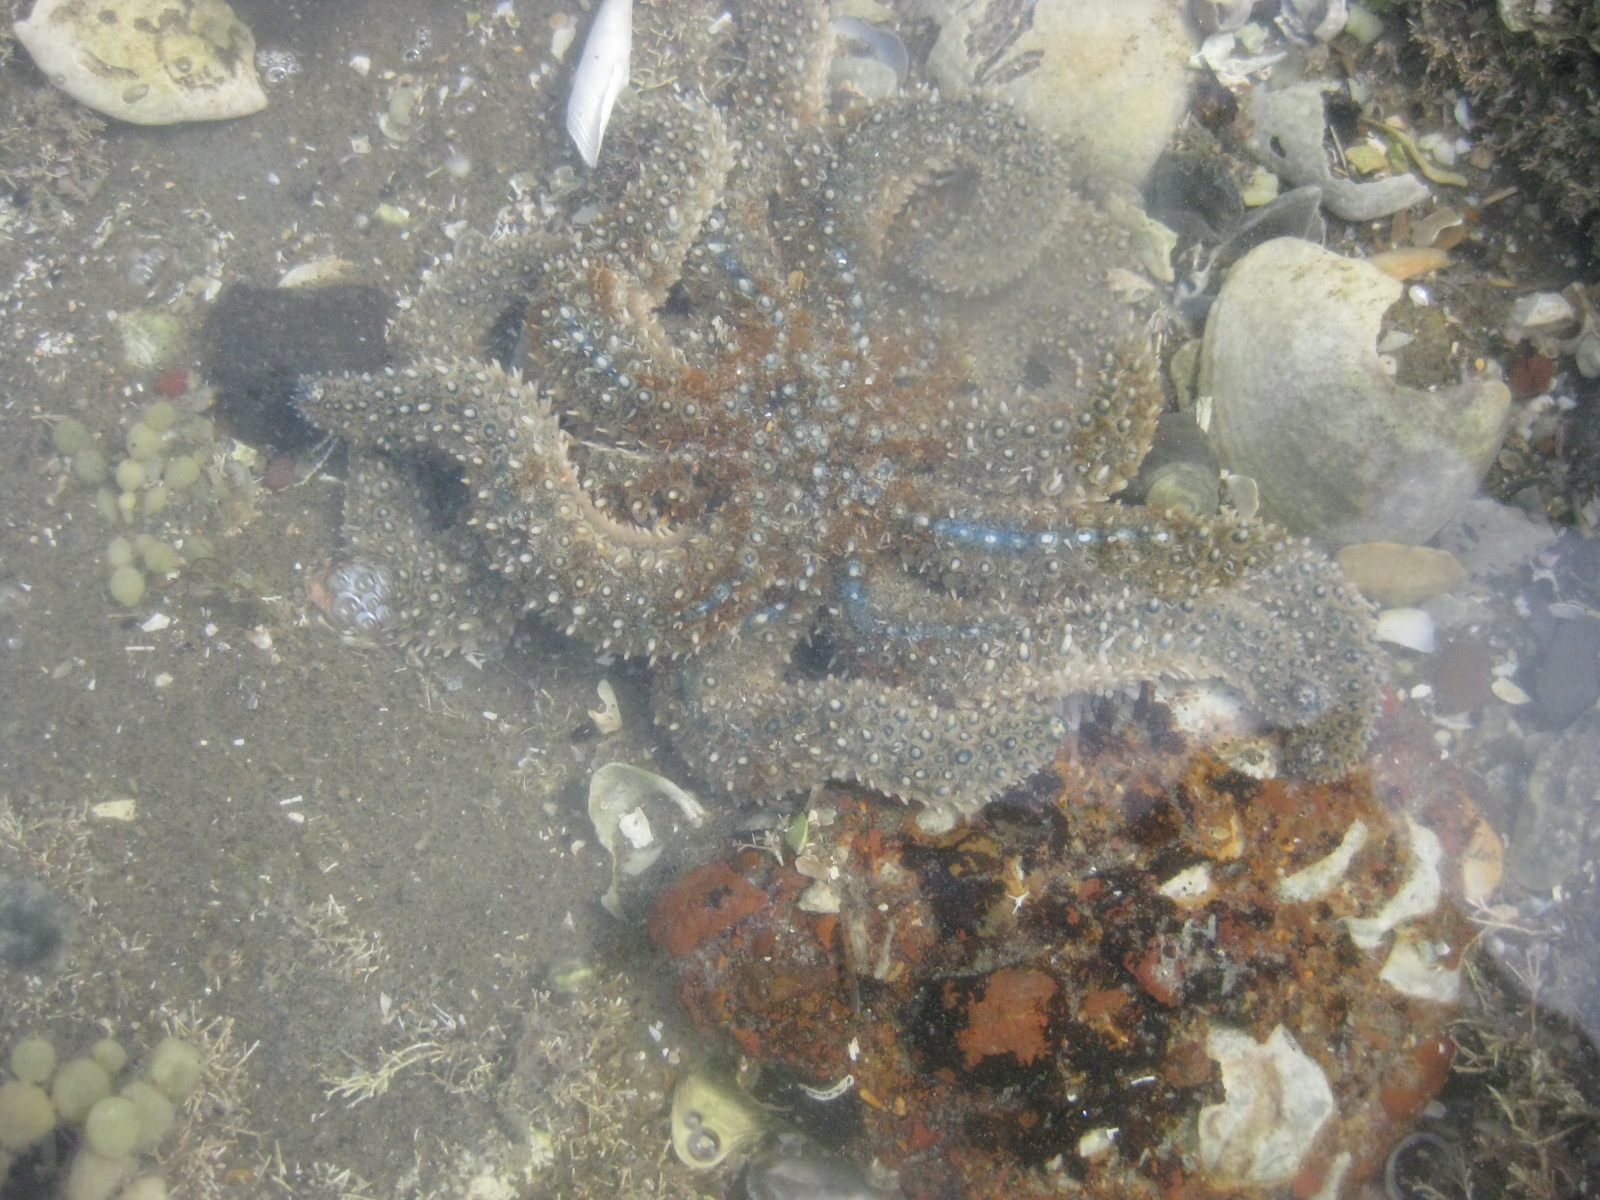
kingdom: Animalia
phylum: Echinodermata
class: Asteroidea
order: Forcipulatida
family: Asteriidae
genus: Coscinasterias
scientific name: Coscinasterias muricata
